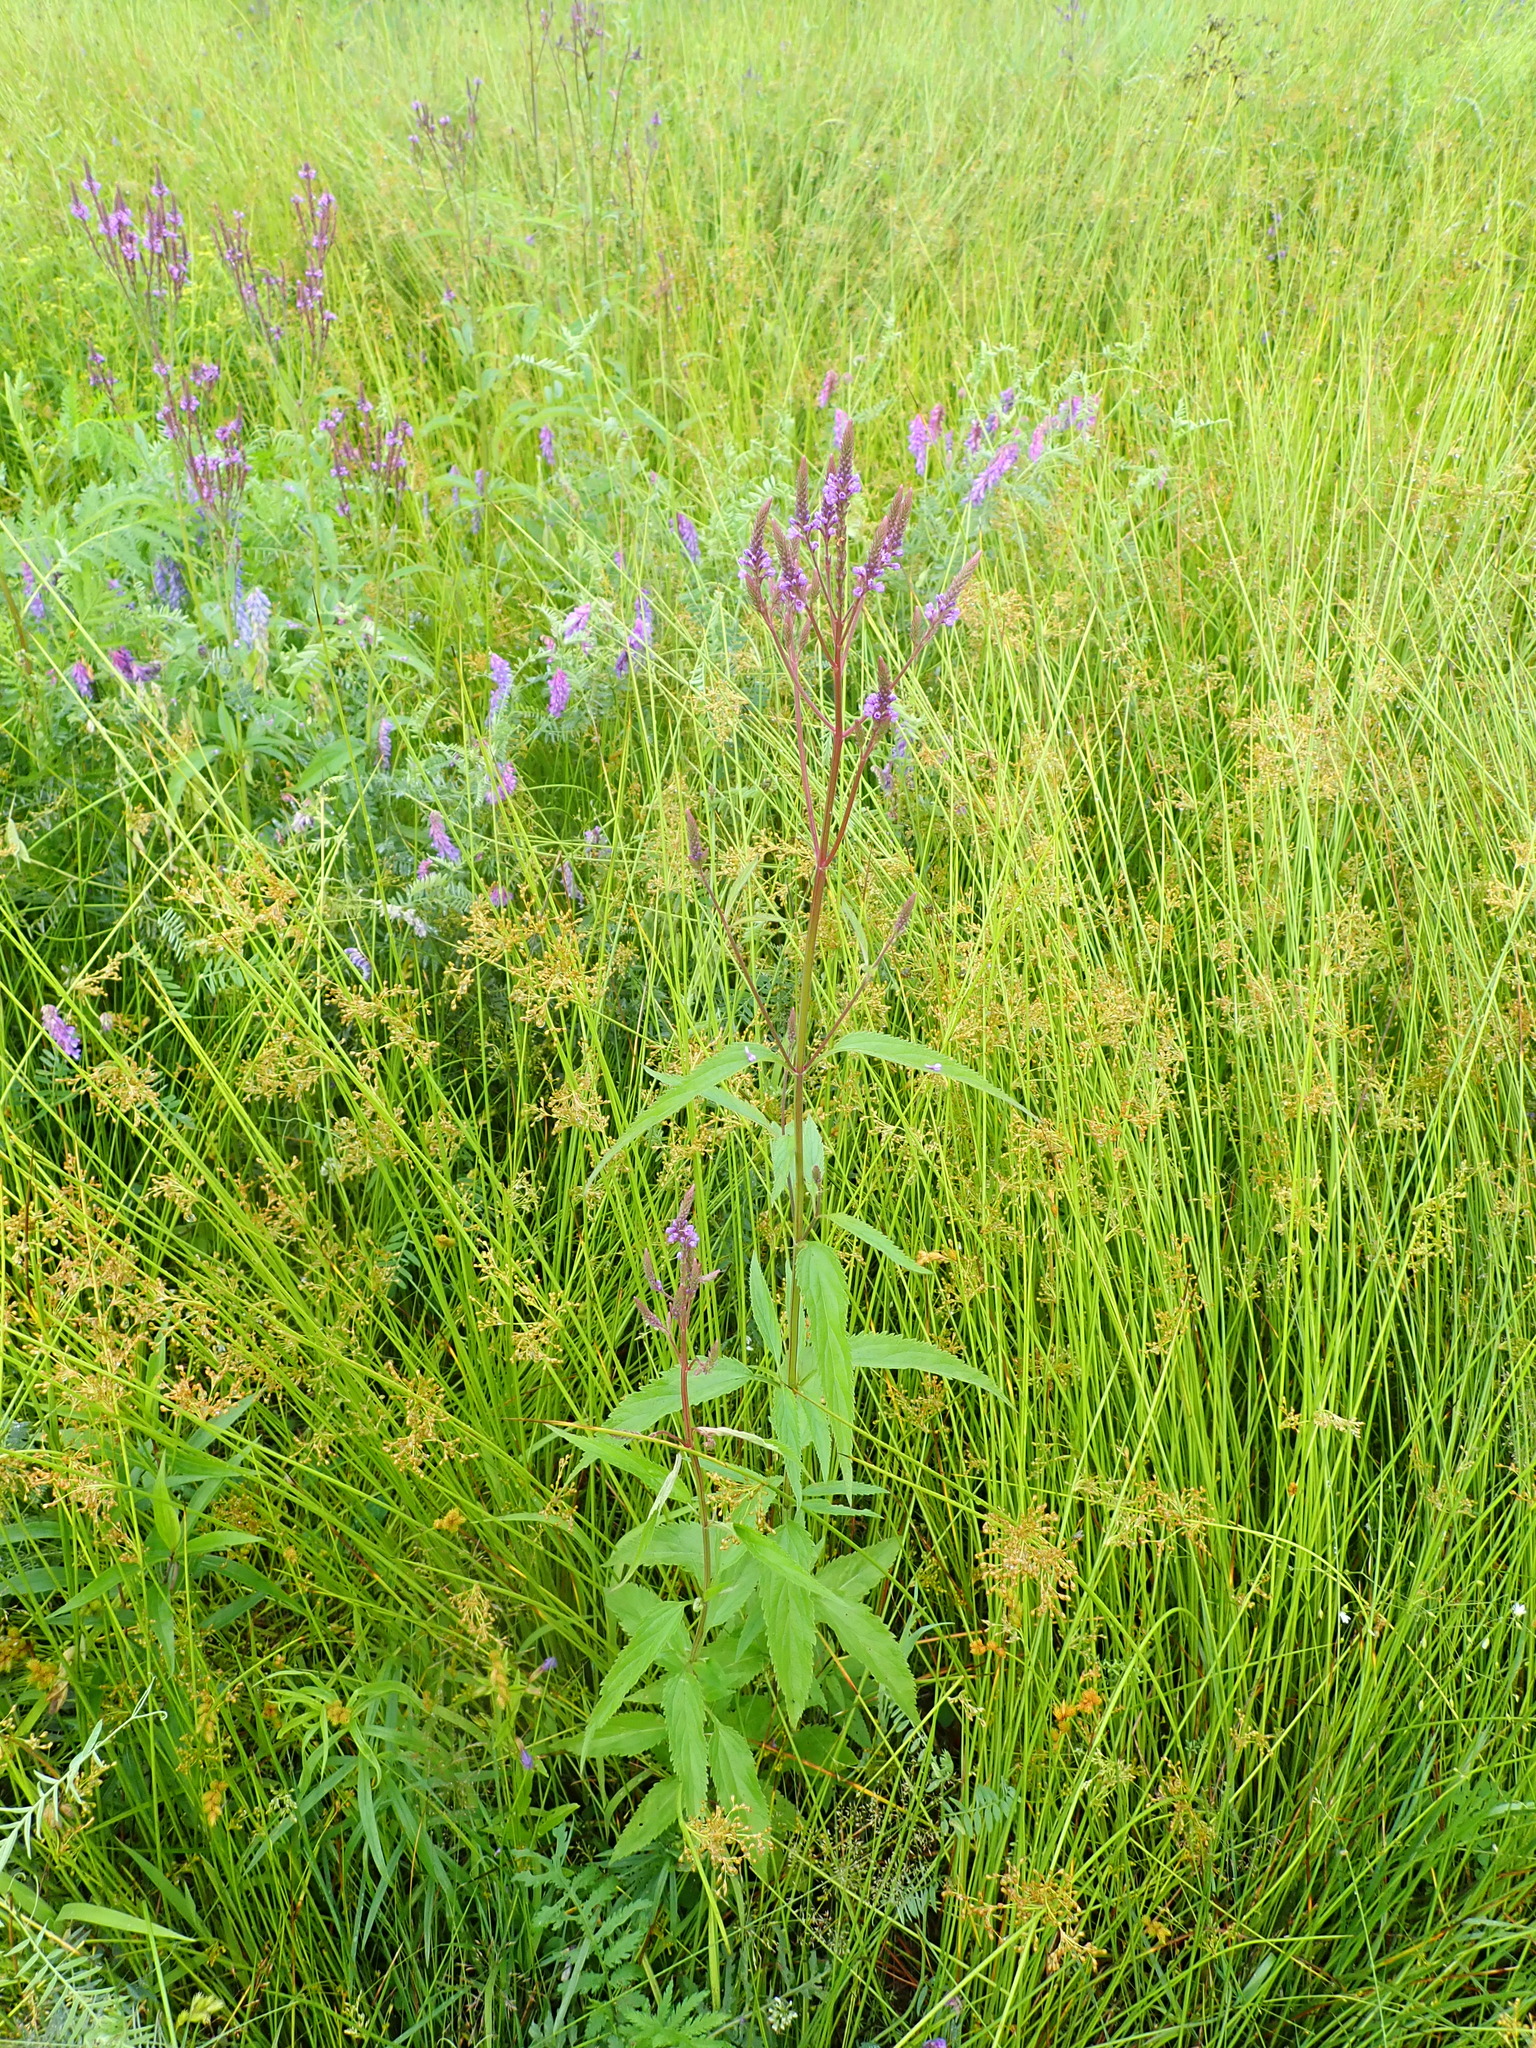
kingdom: Plantae
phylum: Tracheophyta
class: Magnoliopsida
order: Lamiales
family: Verbenaceae
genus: Verbena
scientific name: Verbena hastata
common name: American blue vervain
